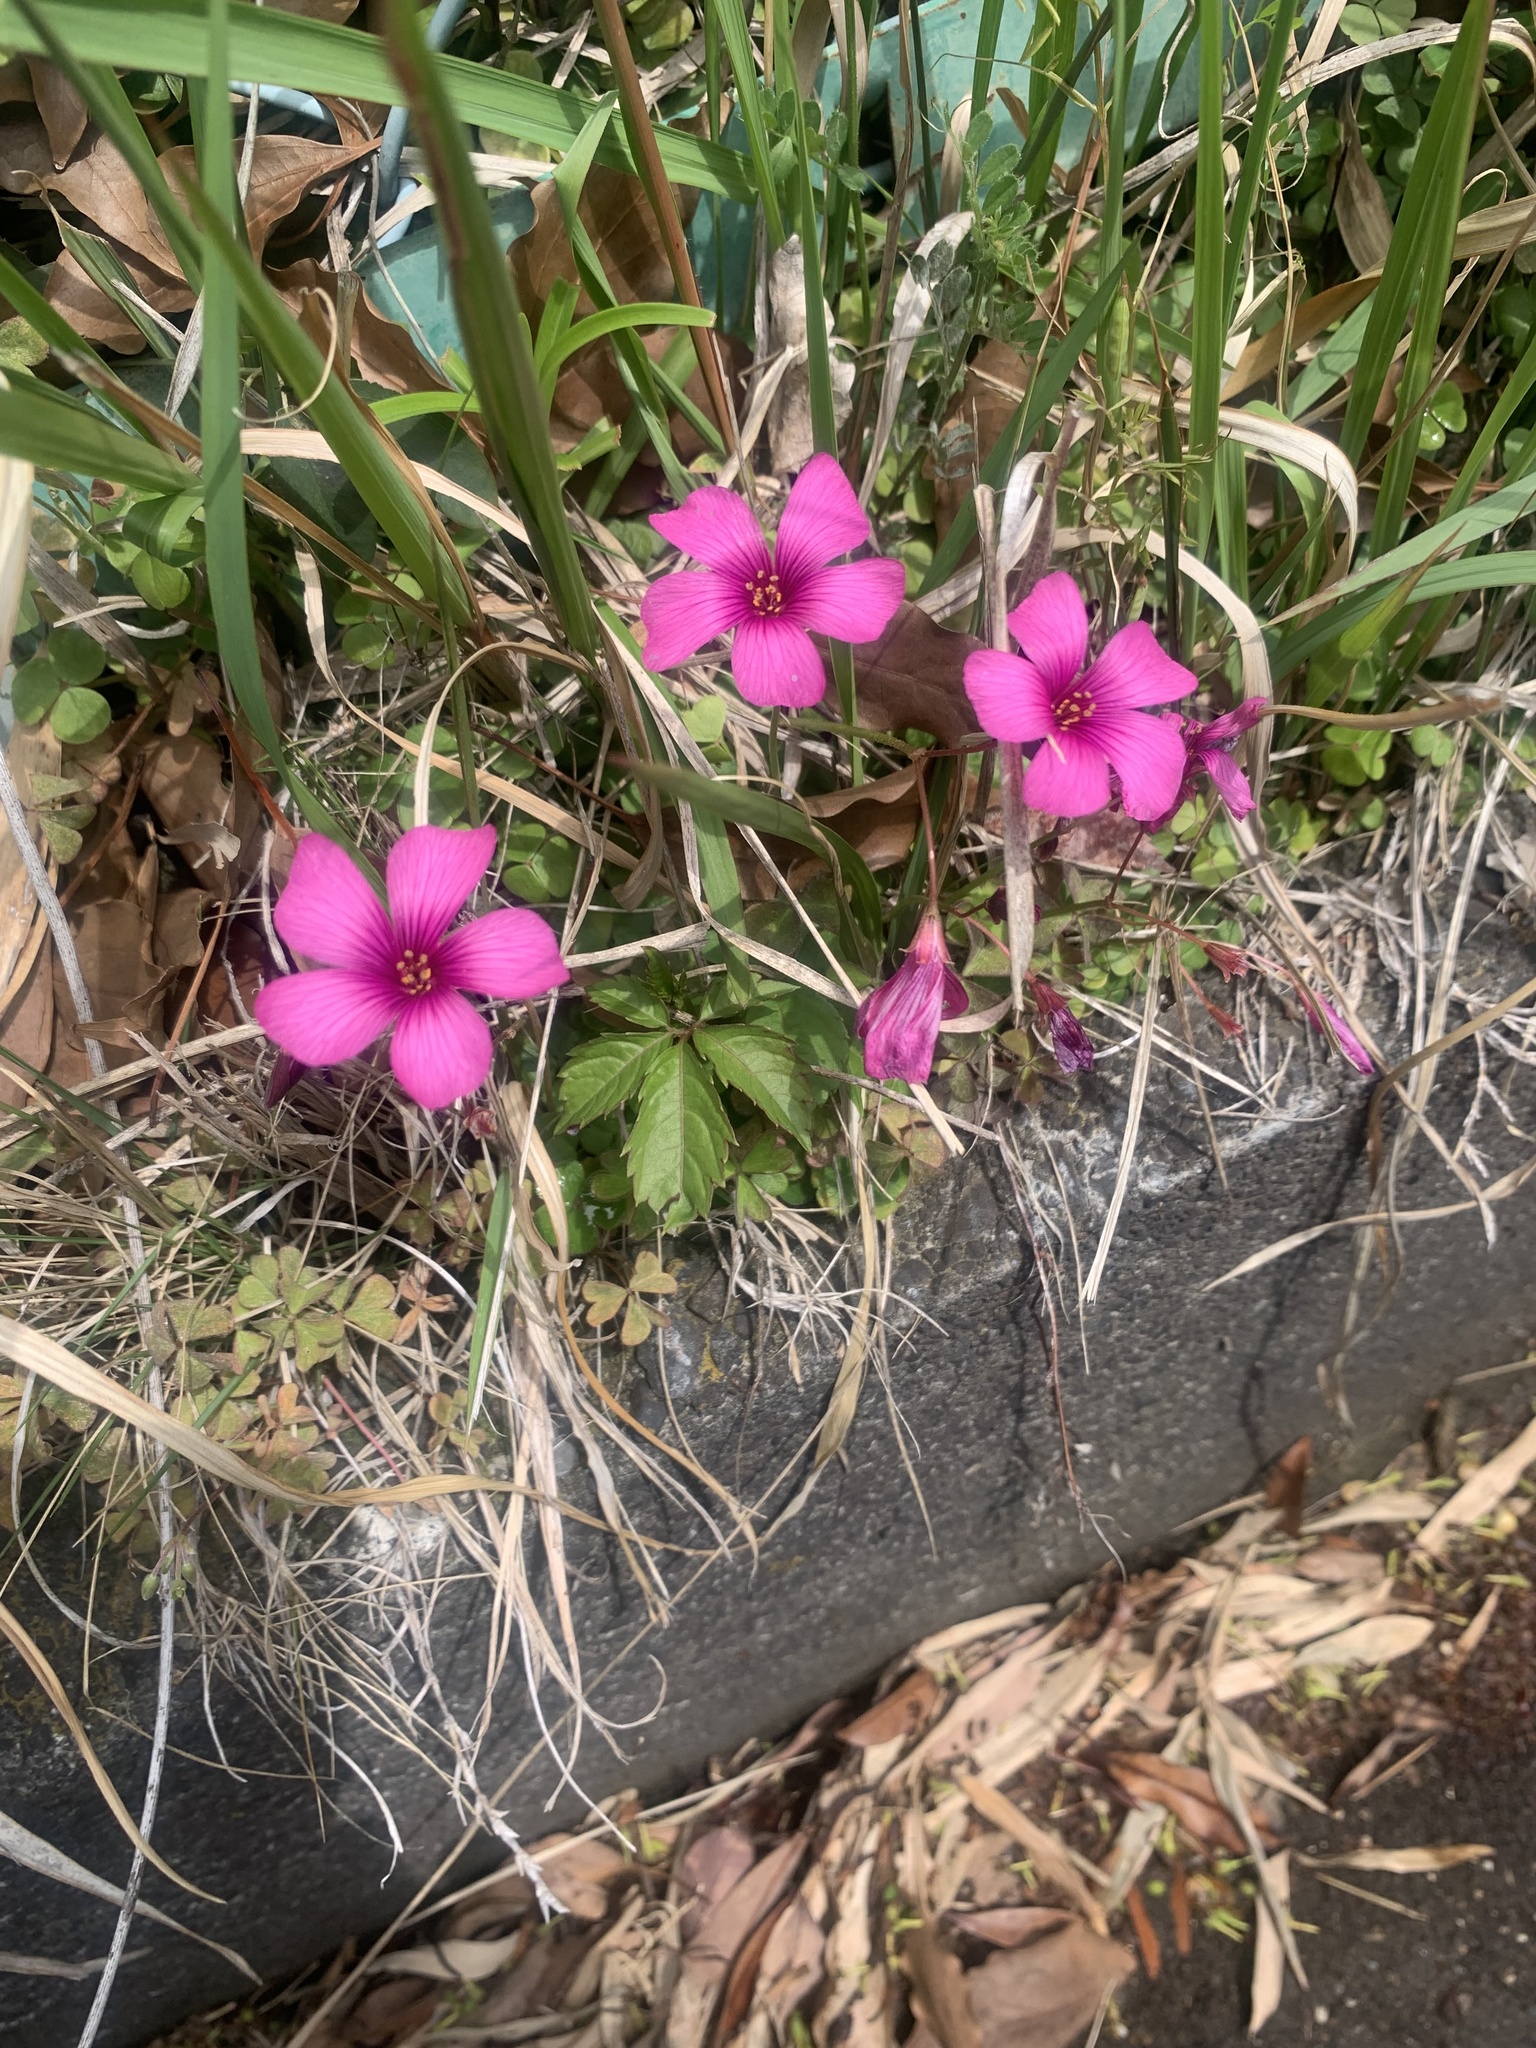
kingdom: Plantae
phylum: Tracheophyta
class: Magnoliopsida
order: Oxalidales
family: Oxalidaceae
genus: Oxalis
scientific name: Oxalis brasiliensis
